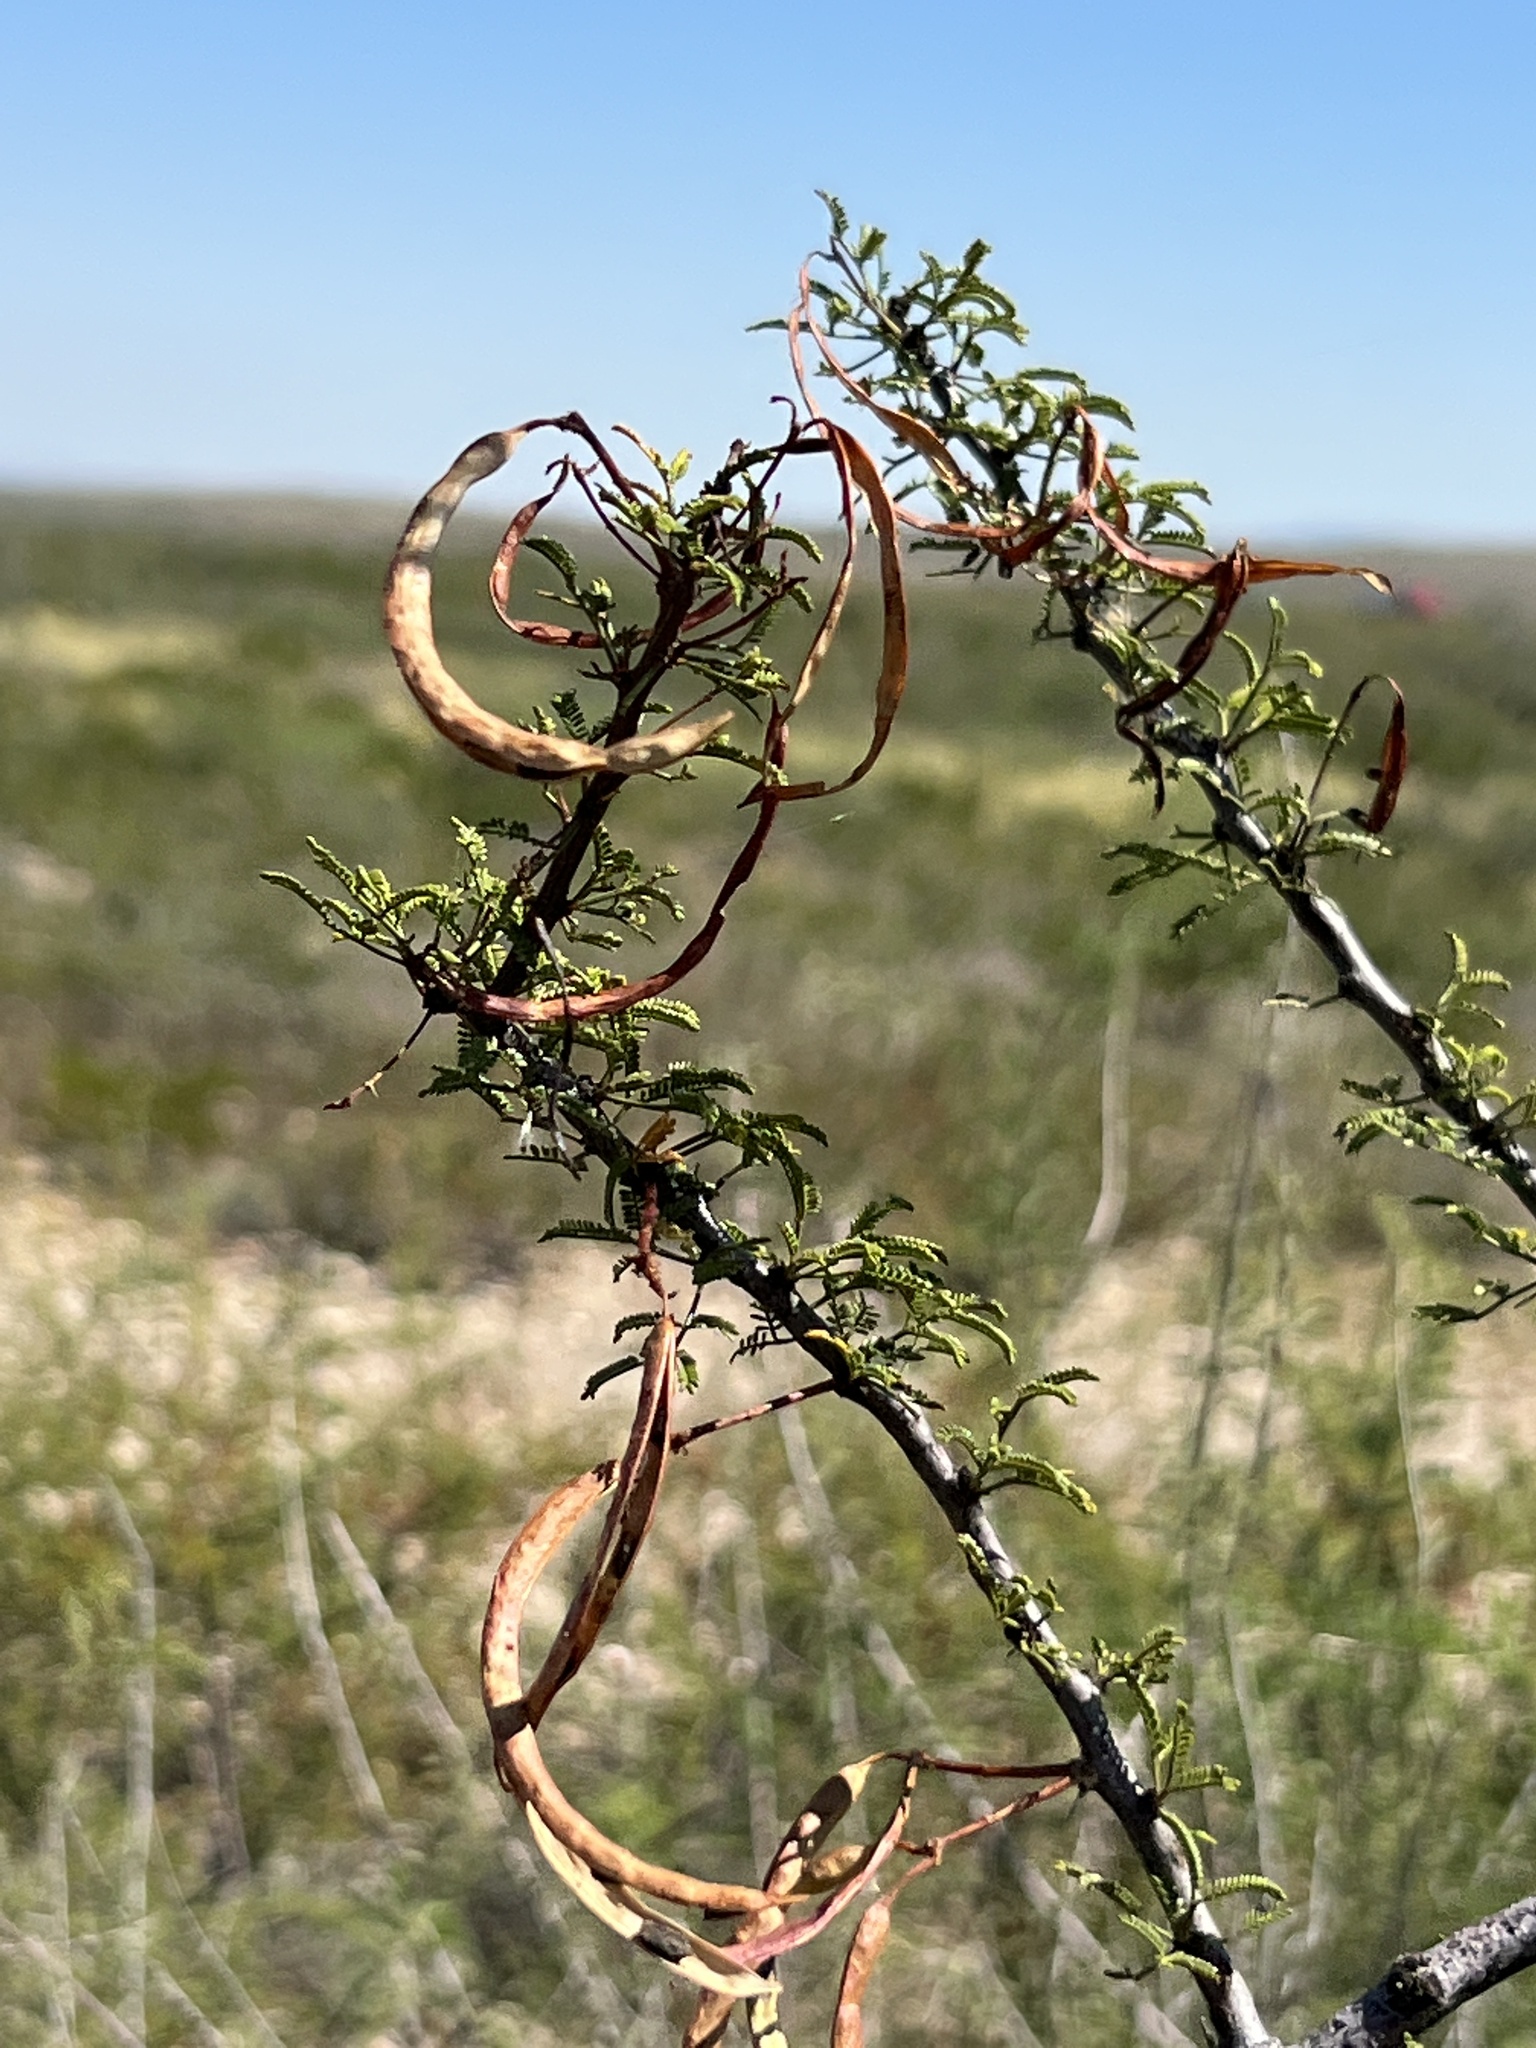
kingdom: Plantae
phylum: Tracheophyta
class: Magnoliopsida
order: Fabales
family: Fabaceae
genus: Vachellia
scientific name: Vachellia vernicosa
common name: Viscid acacia
